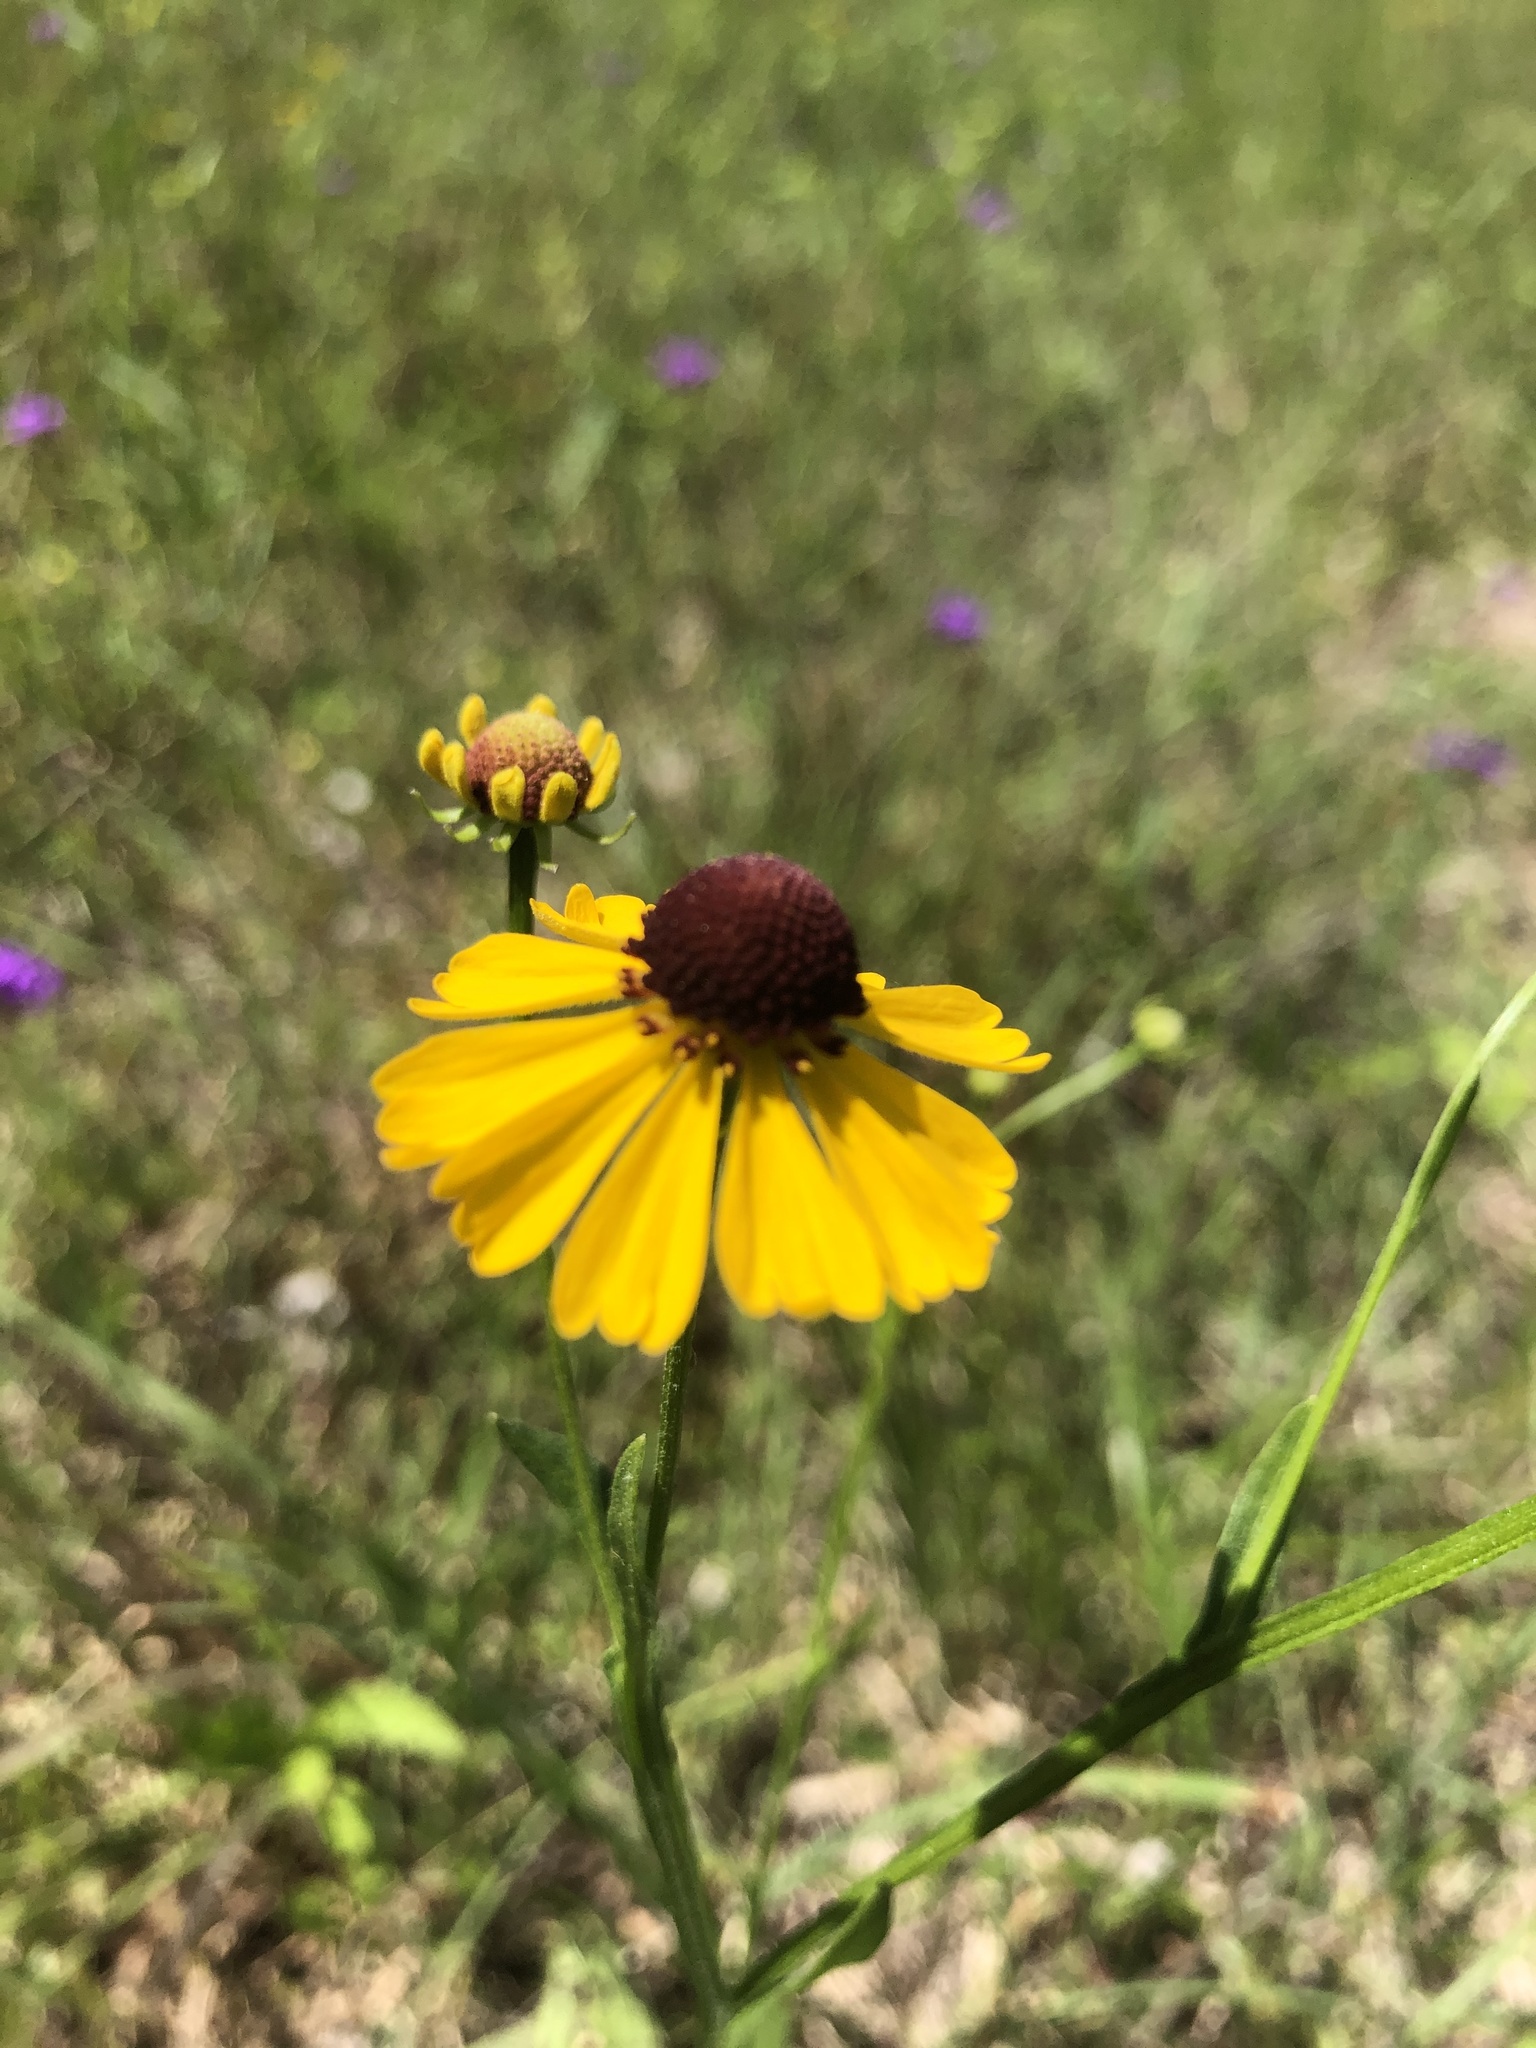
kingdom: Plantae
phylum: Tracheophyta
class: Magnoliopsida
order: Asterales
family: Asteraceae
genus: Helenium
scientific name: Helenium flexuosum
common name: Naked-flowered sneezeweed
